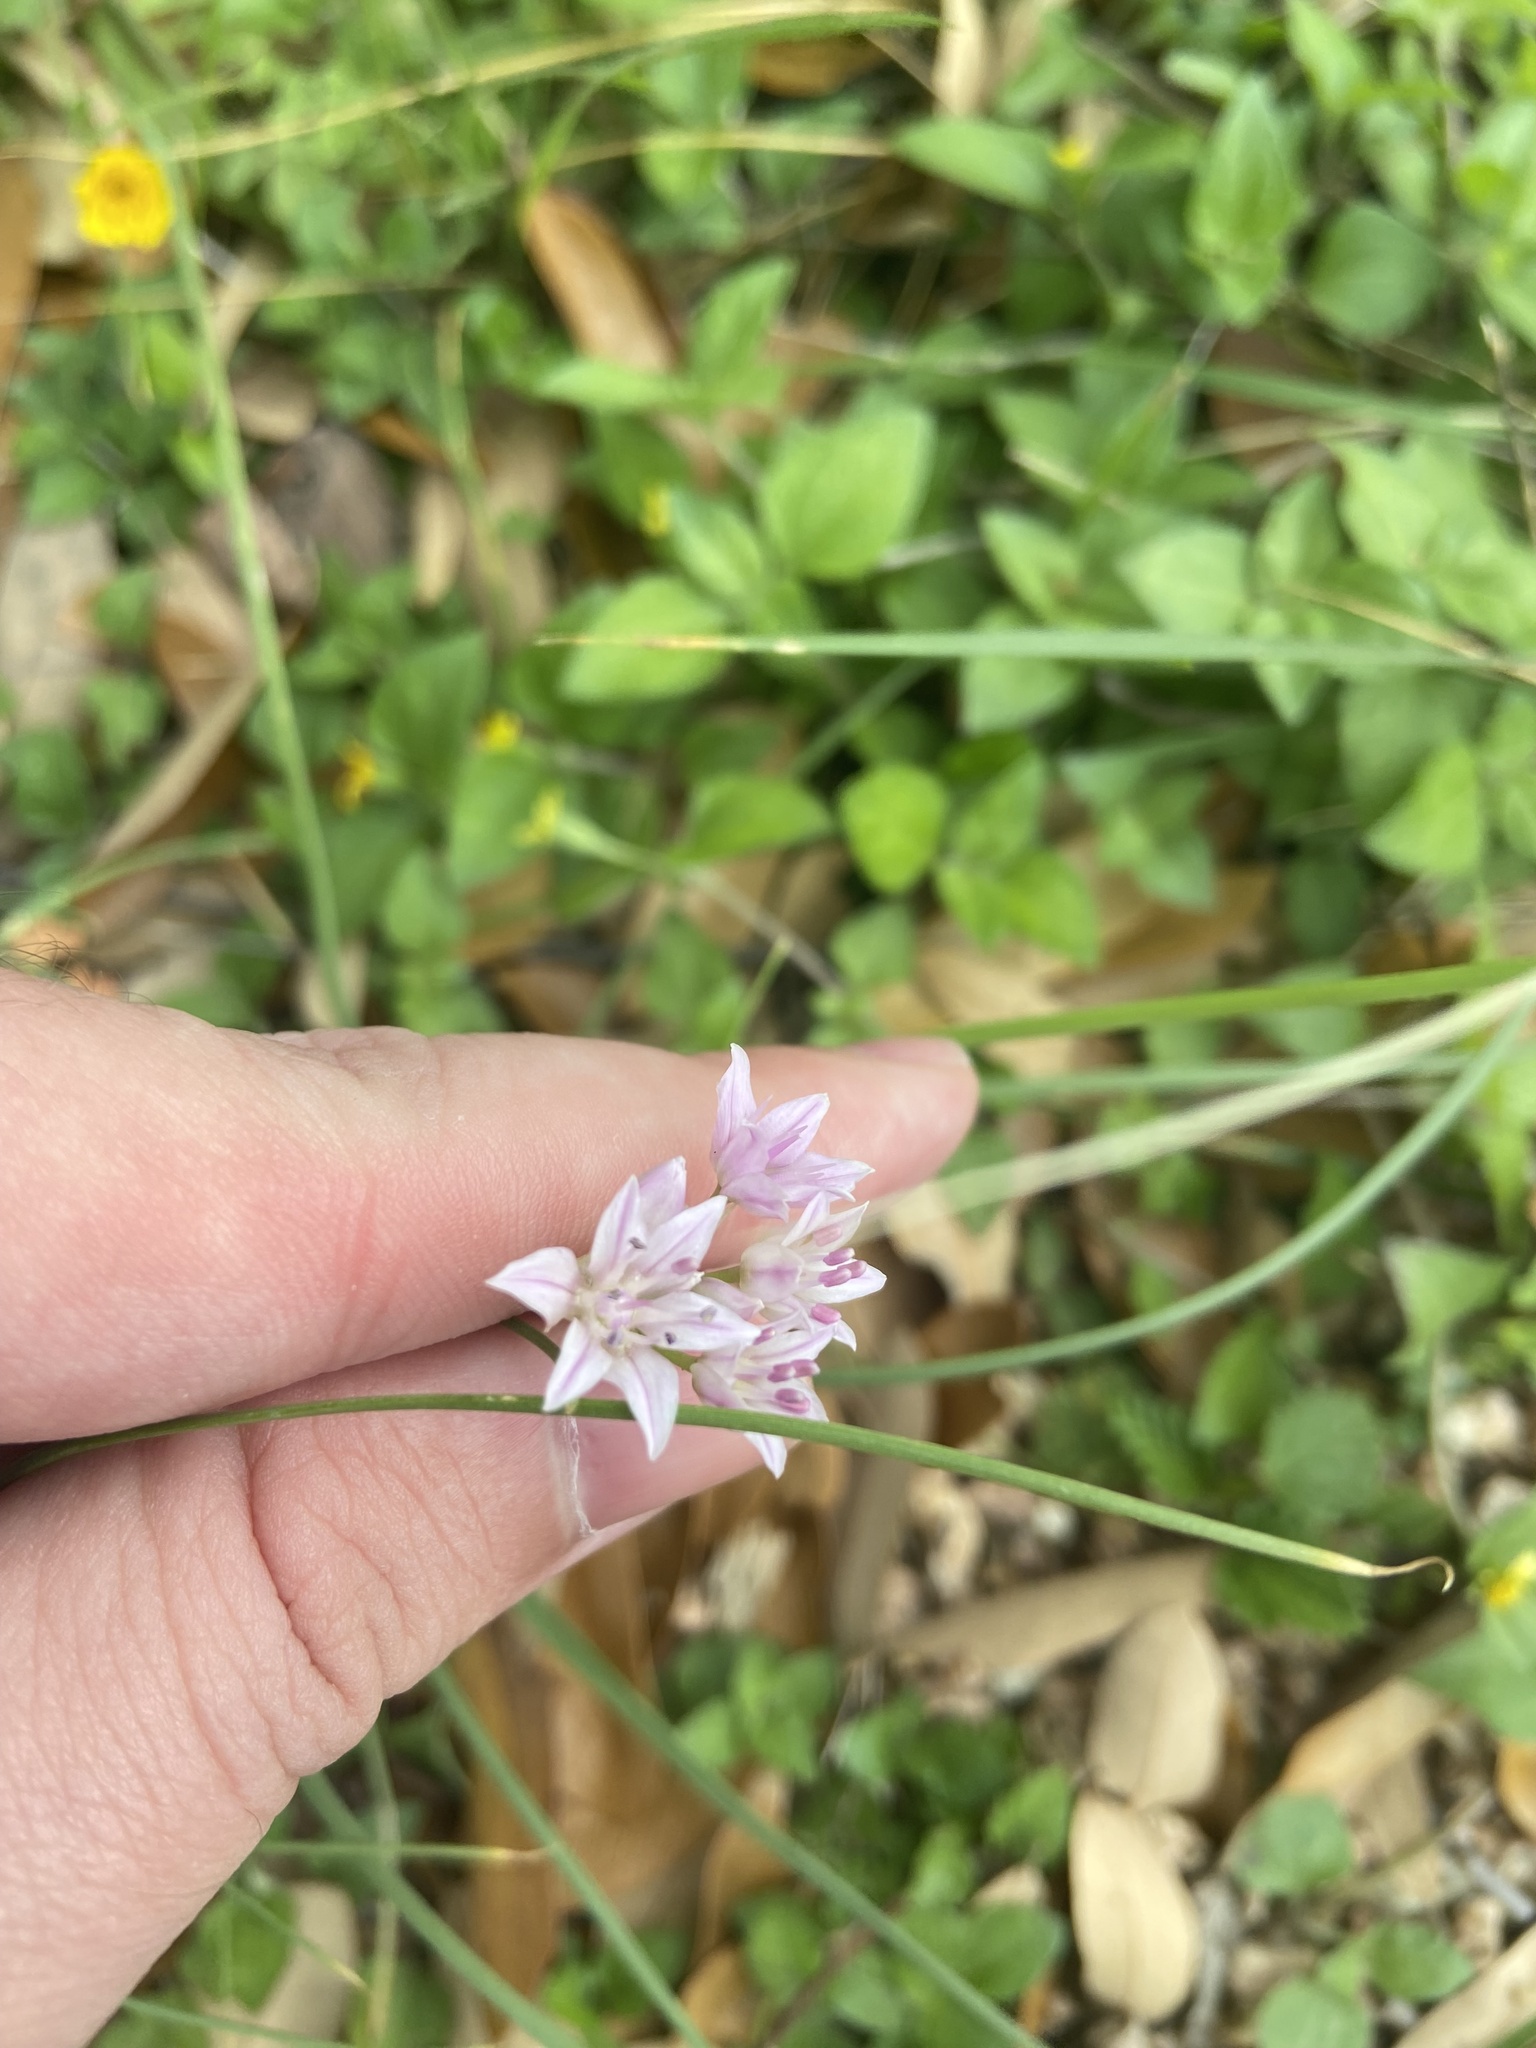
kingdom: Plantae
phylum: Tracheophyta
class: Liliopsida
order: Asparagales
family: Amaryllidaceae
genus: Allium
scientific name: Allium drummondii
